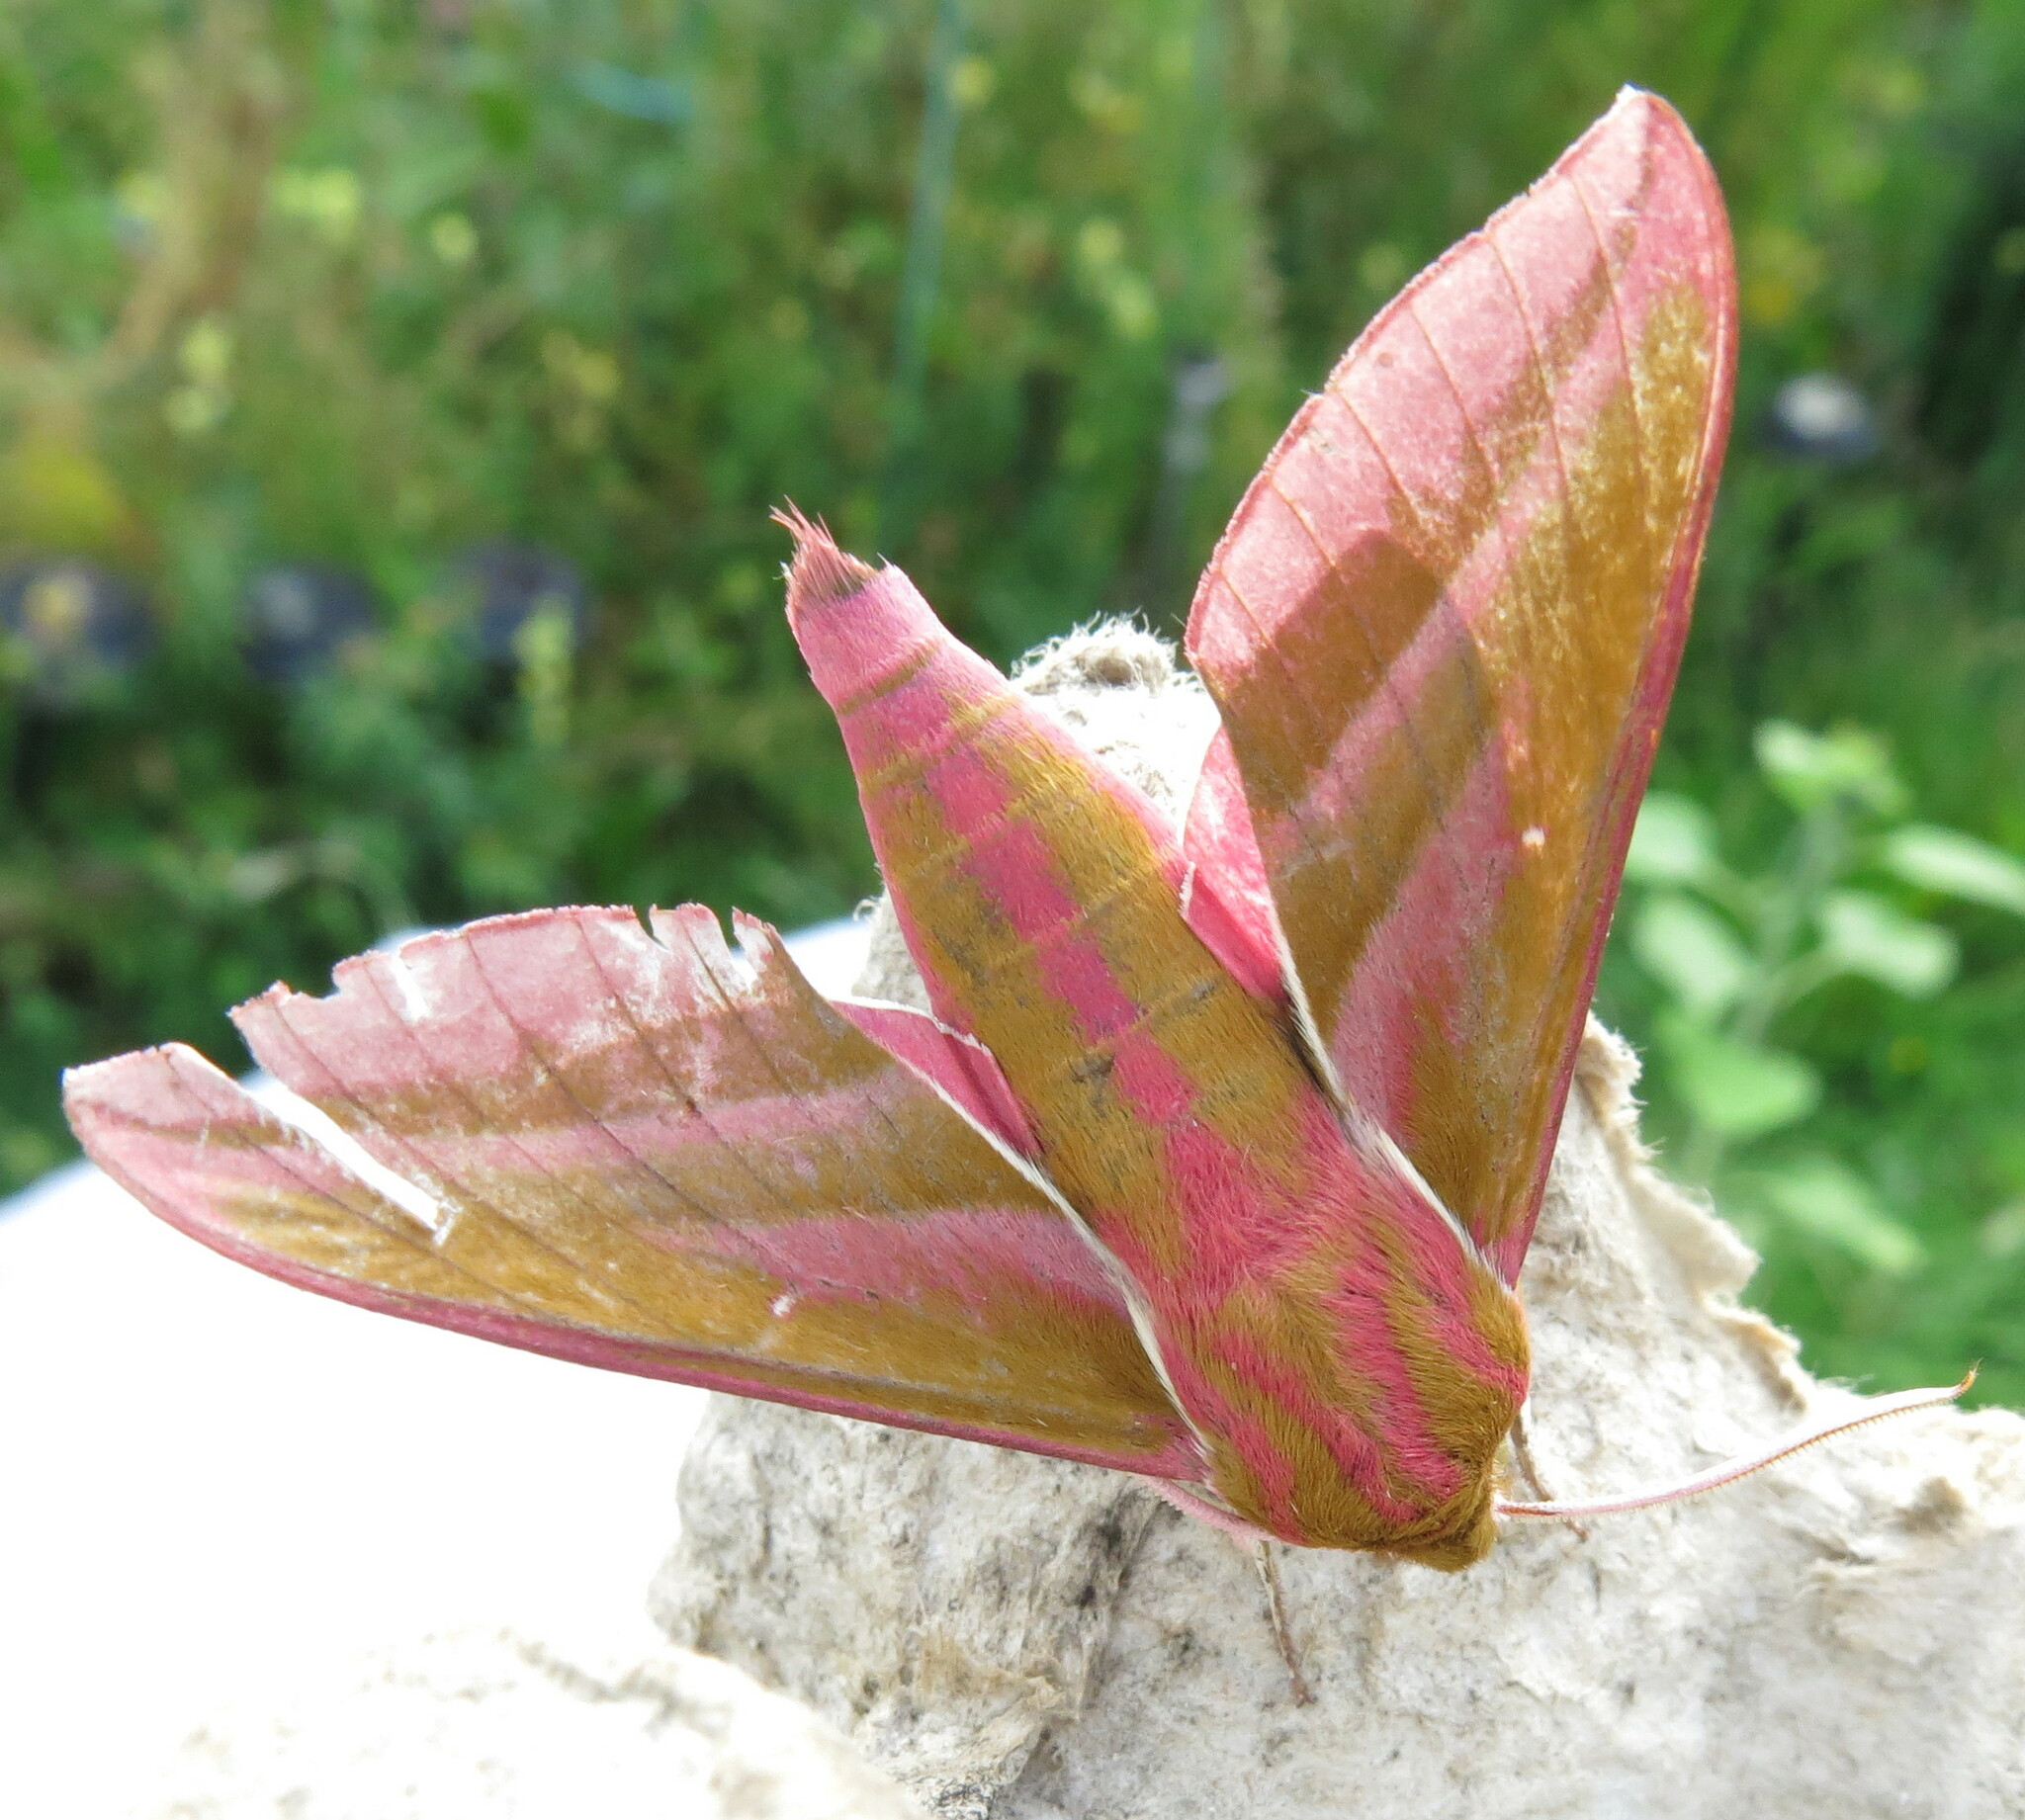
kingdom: Animalia
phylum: Arthropoda
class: Insecta
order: Lepidoptera
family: Sphingidae
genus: Deilephila
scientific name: Deilephila elpenor
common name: Elephant hawk-moth
